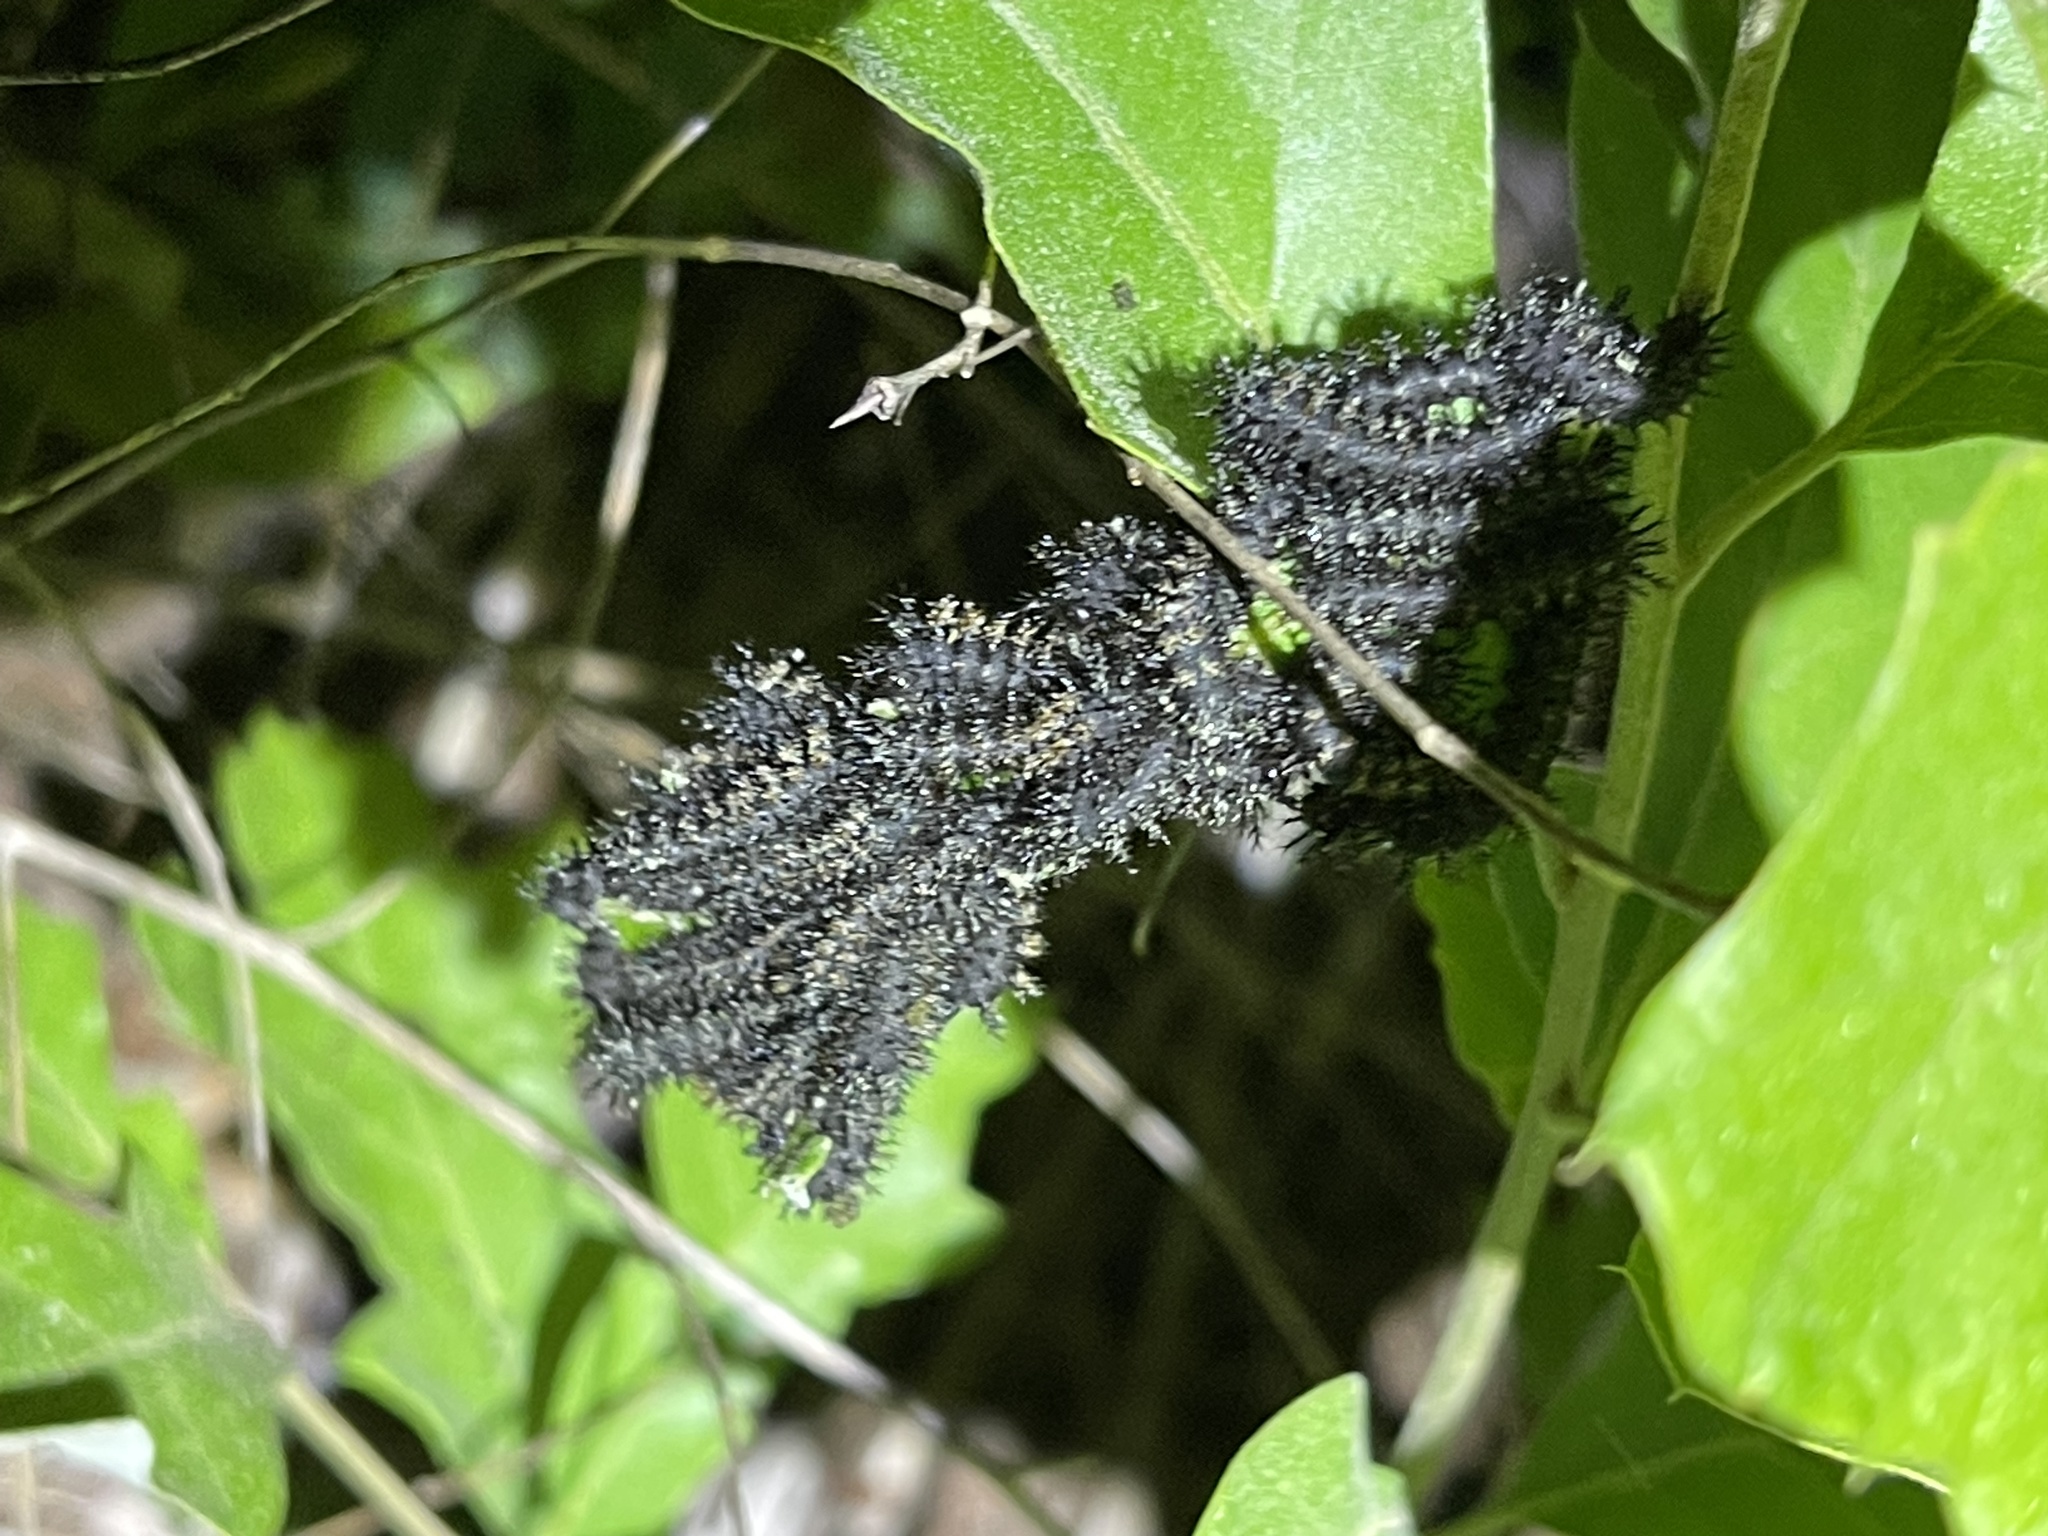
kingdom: Animalia
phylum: Arthropoda
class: Insecta
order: Lepidoptera
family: Saturniidae
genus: Hemileuca
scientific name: Hemileuca maia
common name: Eastern buckmoth
